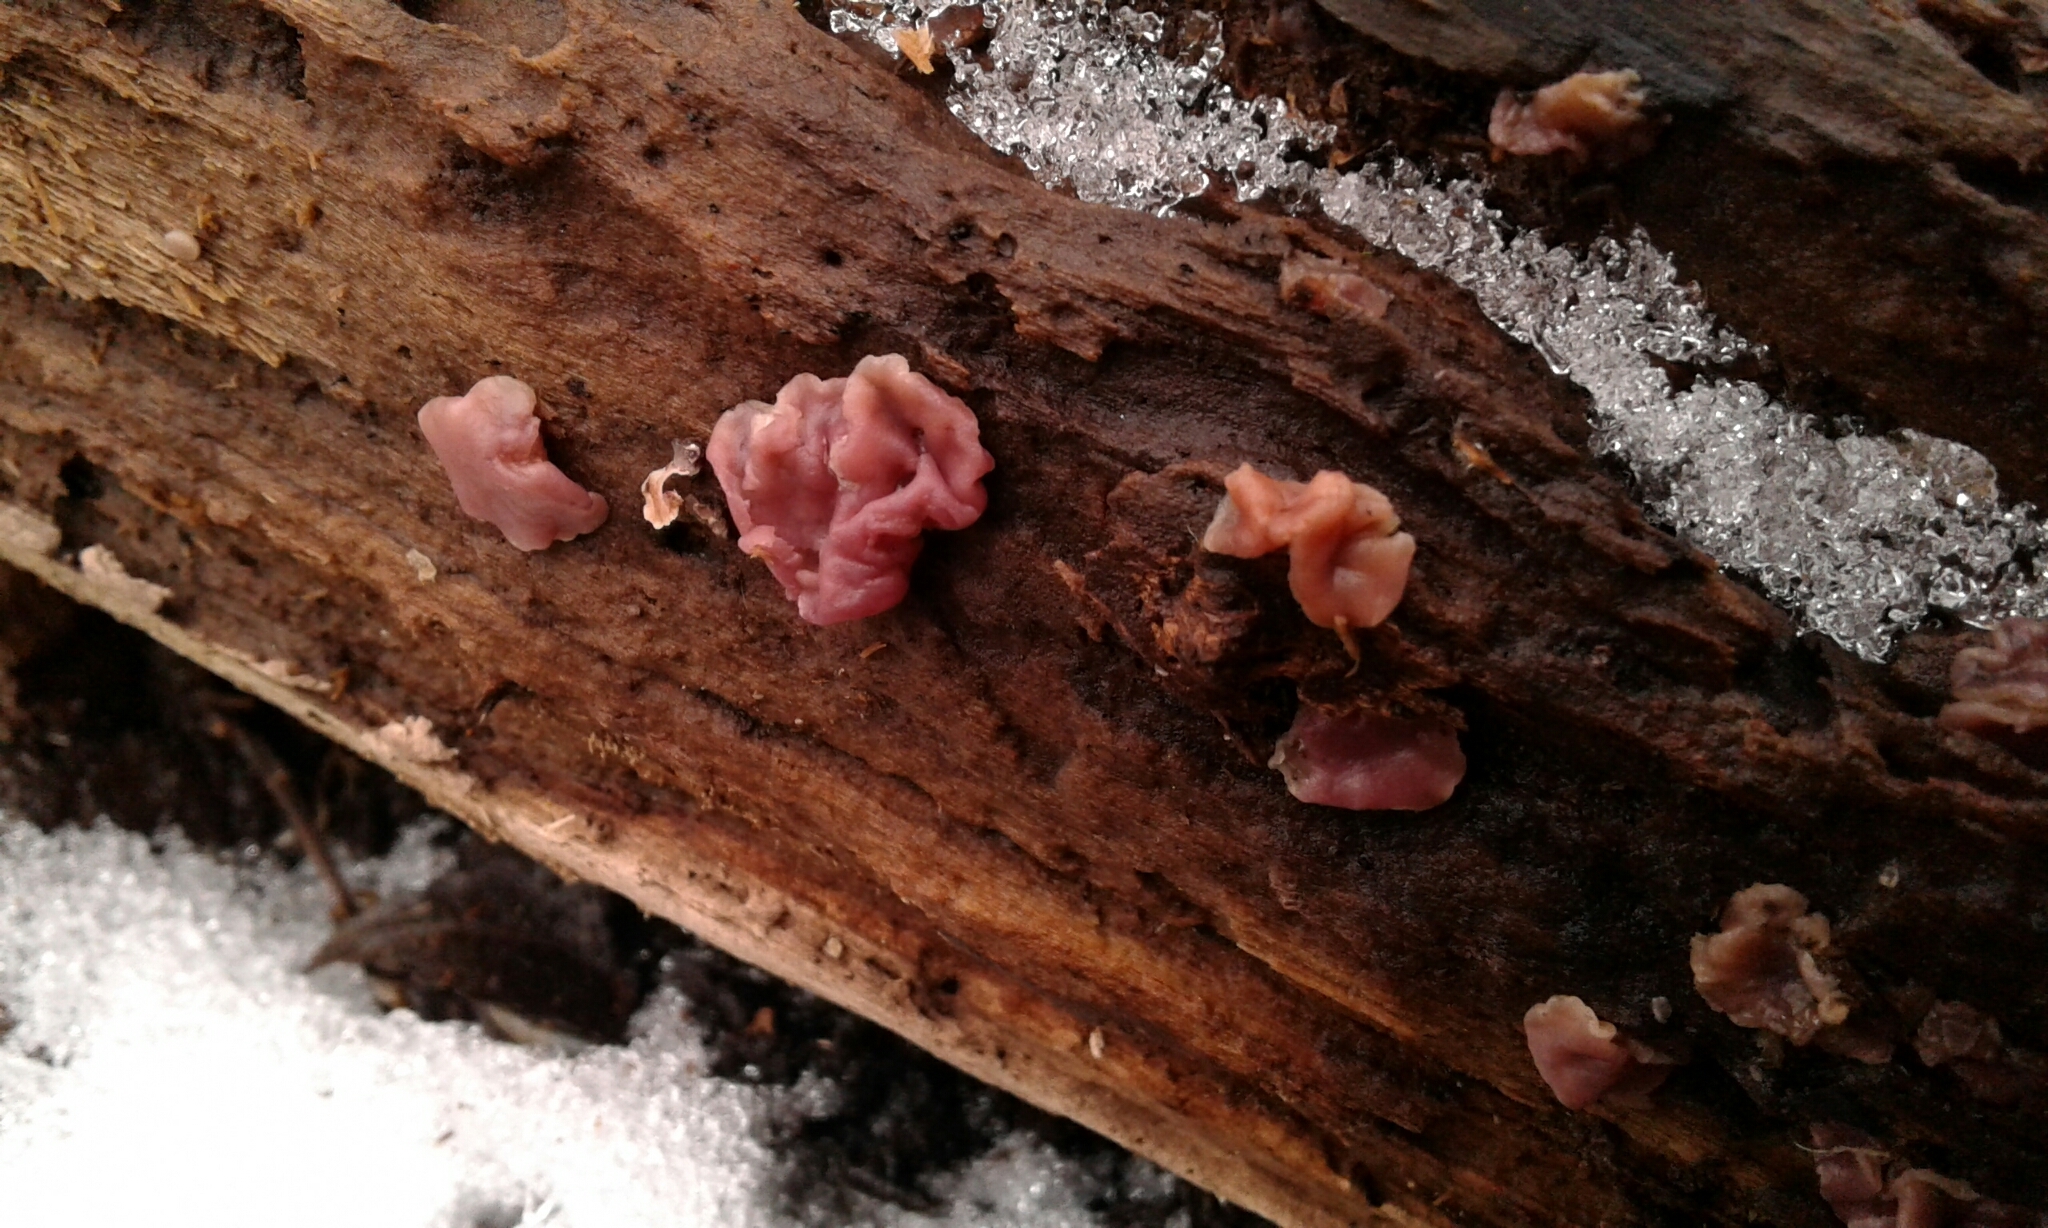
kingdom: Fungi
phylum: Ascomycota
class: Leotiomycetes
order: Helotiales
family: Gelatinodiscaceae
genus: Ascocoryne
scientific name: Ascocoryne sarcoides
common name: Purple jellydisc
